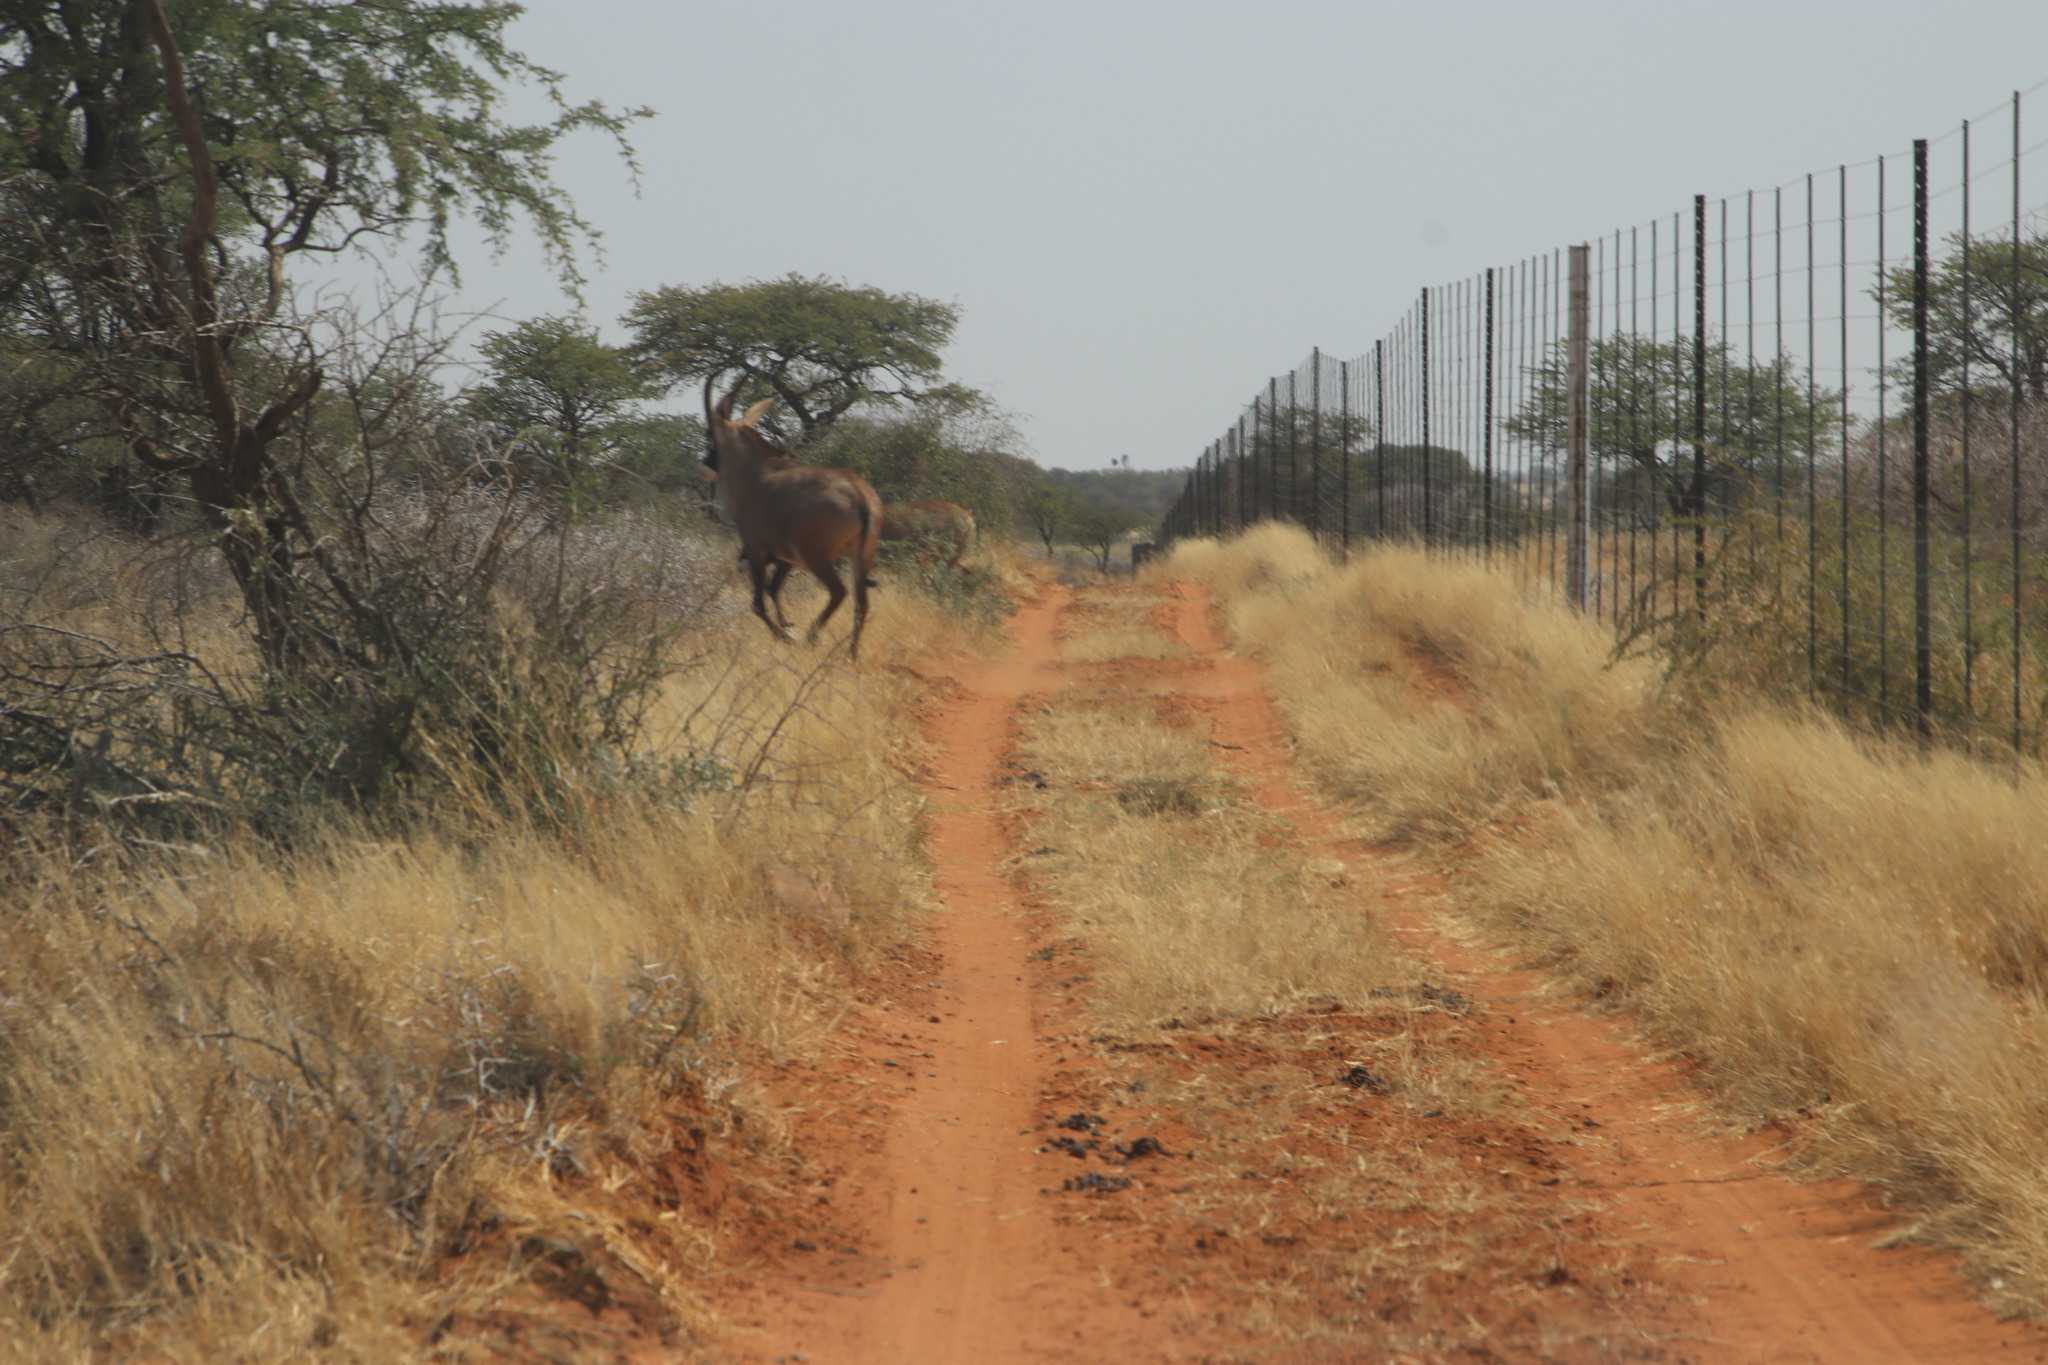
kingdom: Animalia
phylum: Chordata
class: Mammalia
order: Artiodactyla
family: Bovidae
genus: Hippotragus
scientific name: Hippotragus equinus
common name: Roan antelope
